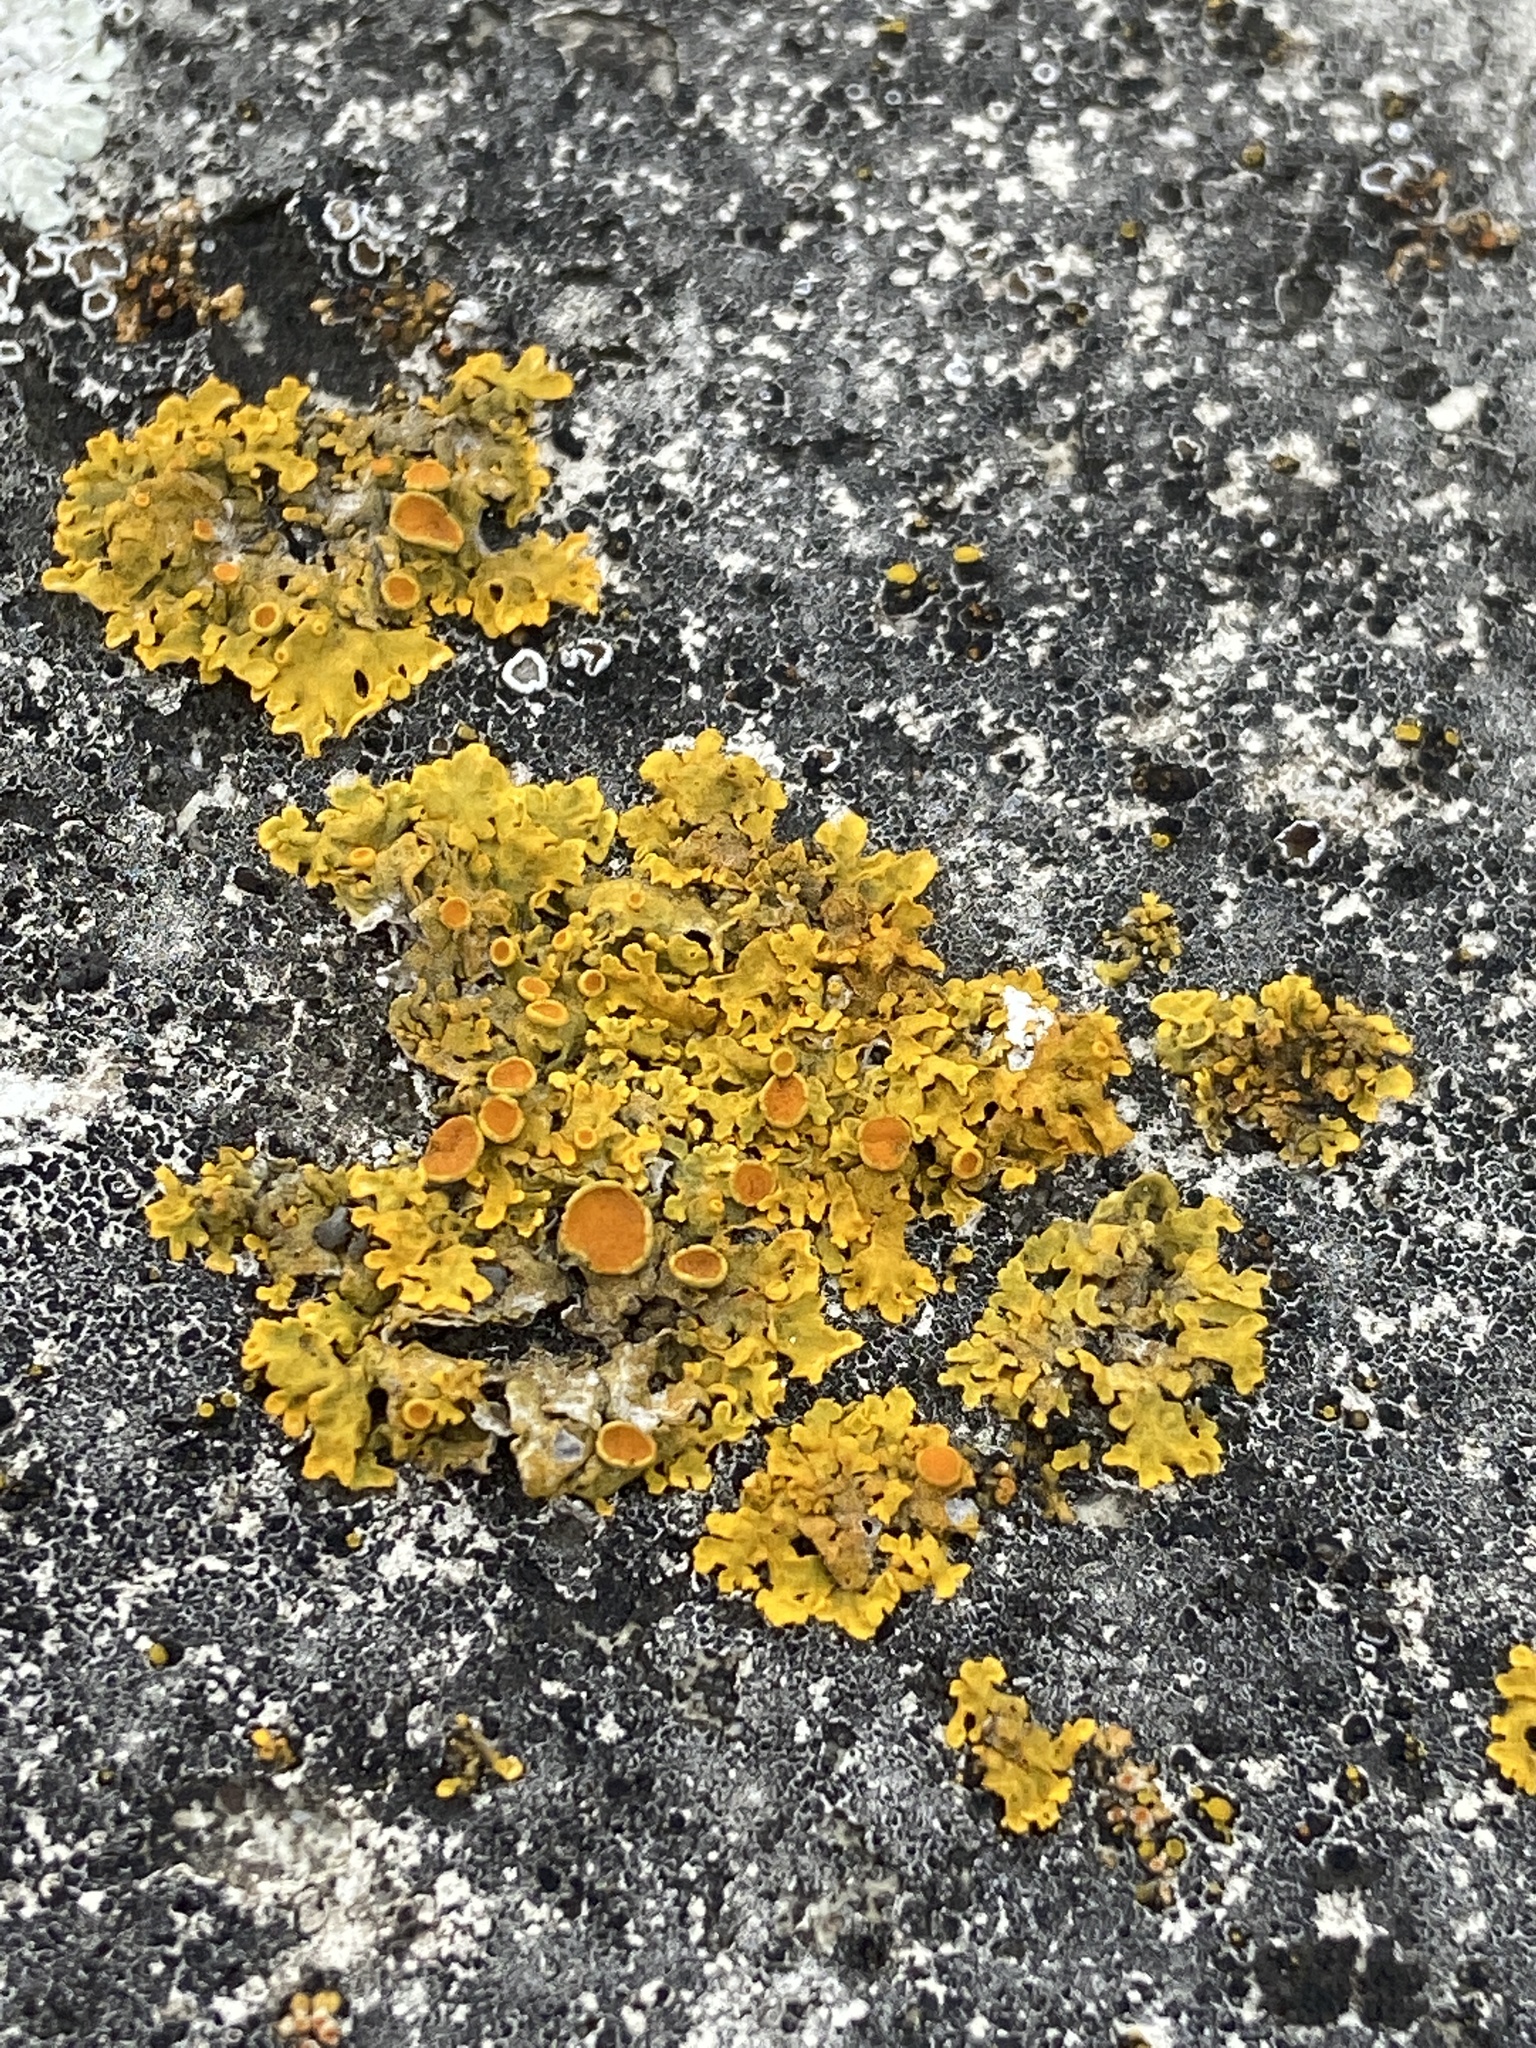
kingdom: Fungi
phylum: Ascomycota
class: Lecanoromycetes
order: Teloschistales
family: Teloschistaceae
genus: Xanthoria
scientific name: Xanthoria parietina
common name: Common orange lichen
